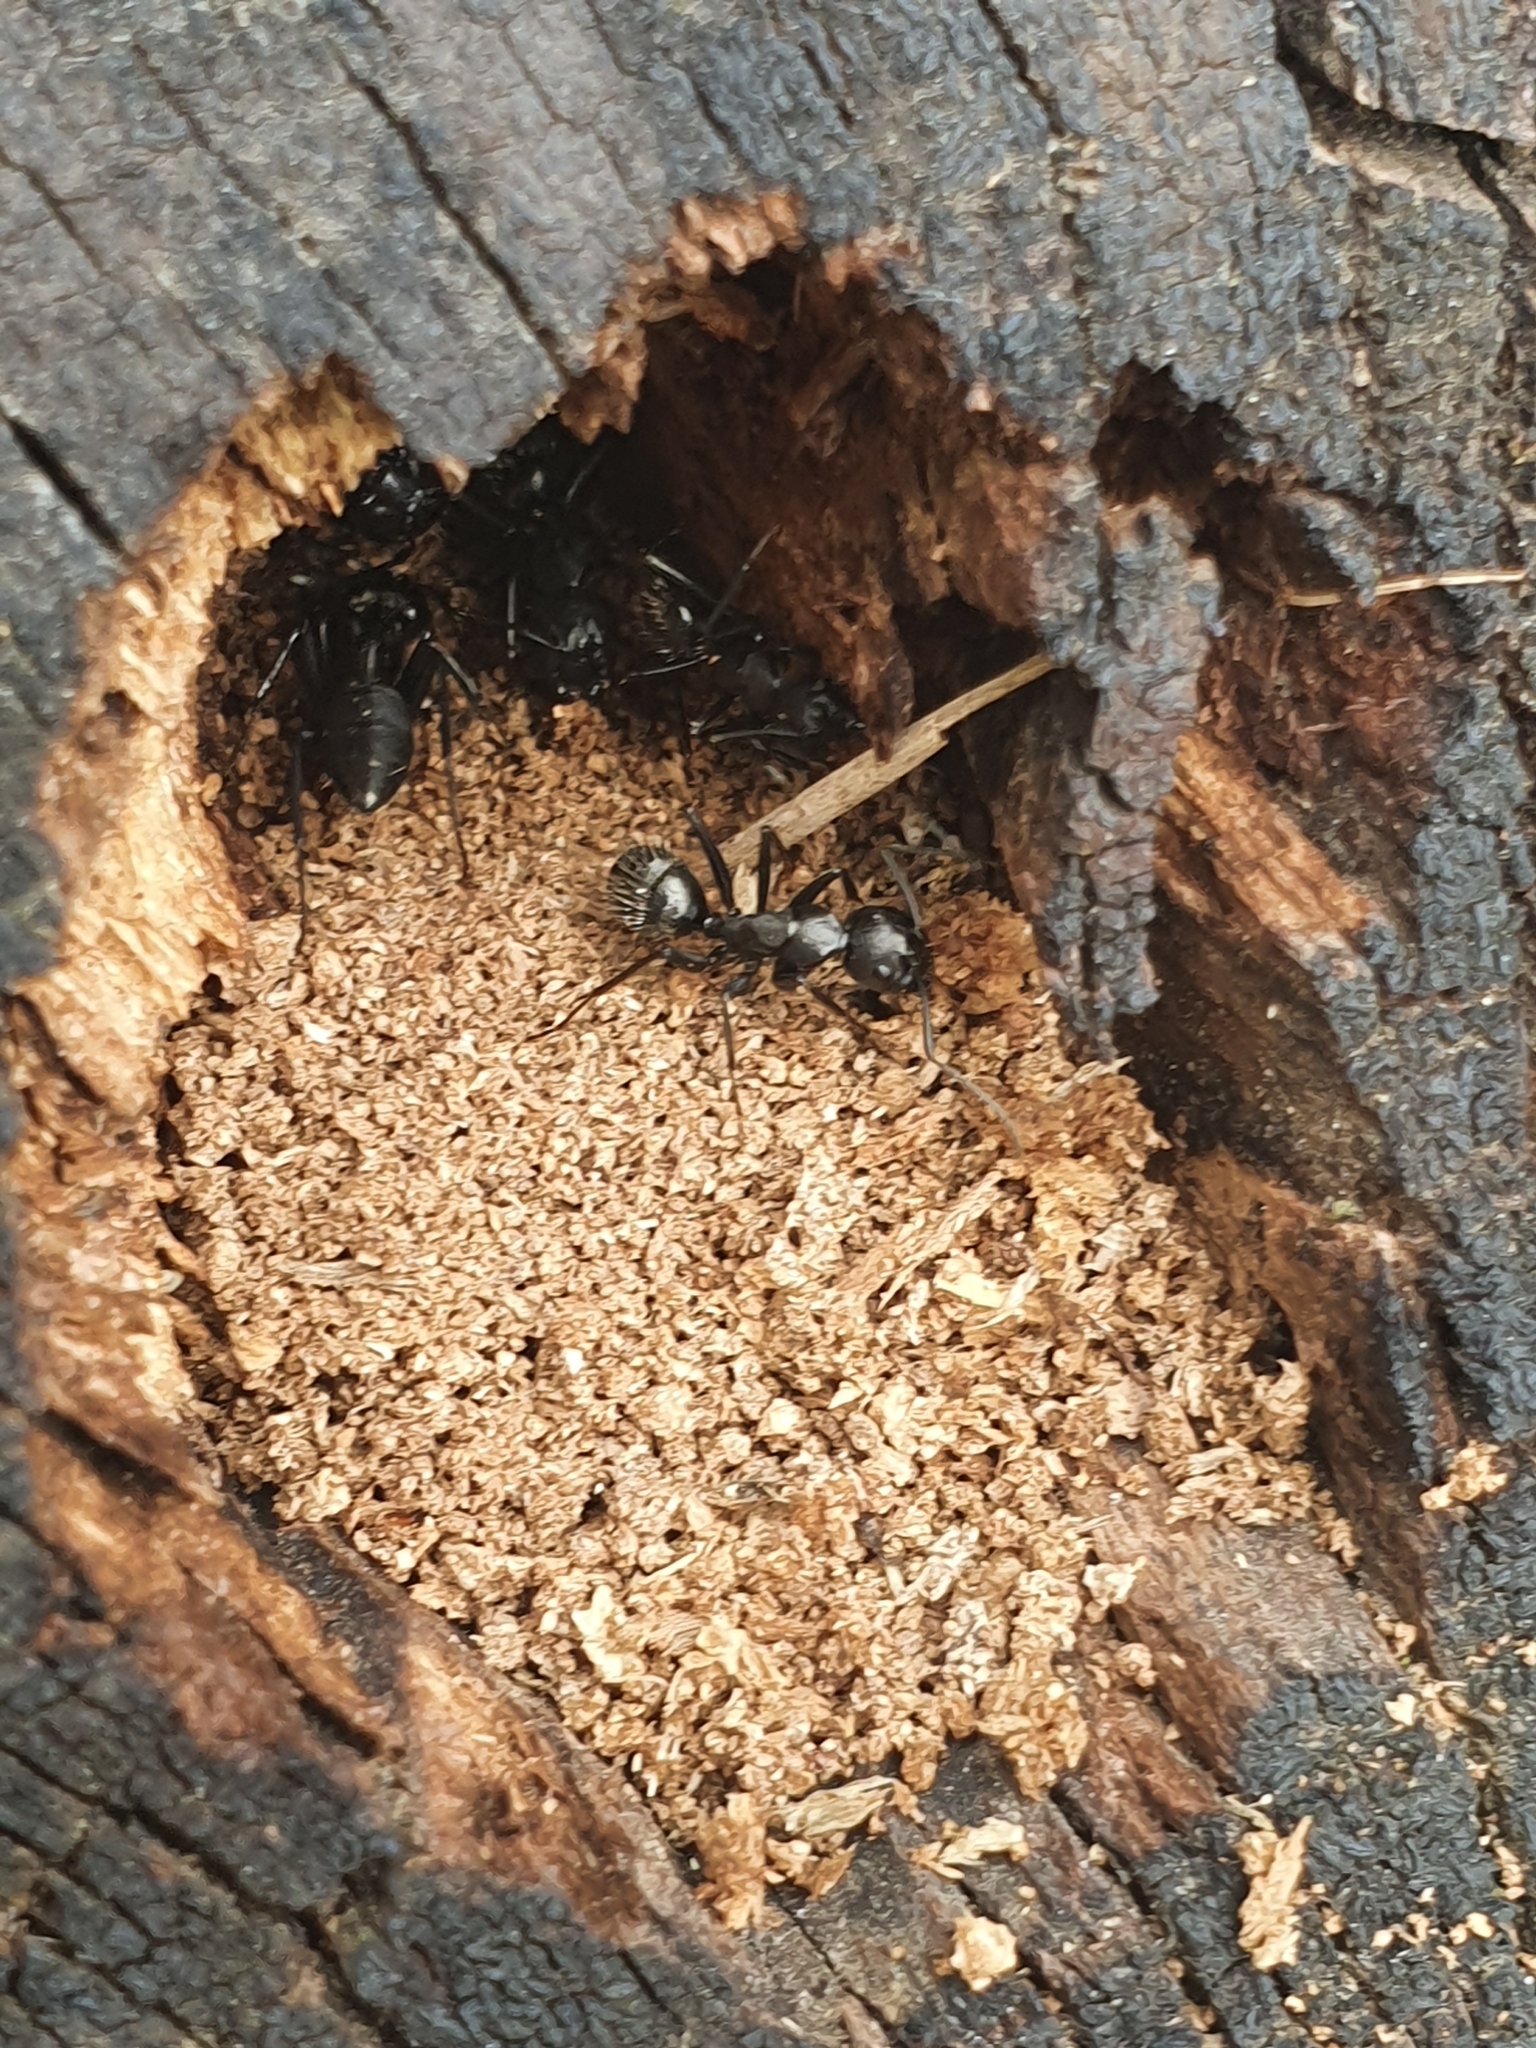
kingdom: Animalia
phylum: Arthropoda
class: Insecta
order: Hymenoptera
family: Formicidae
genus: Camponotus
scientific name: Camponotus vagus
